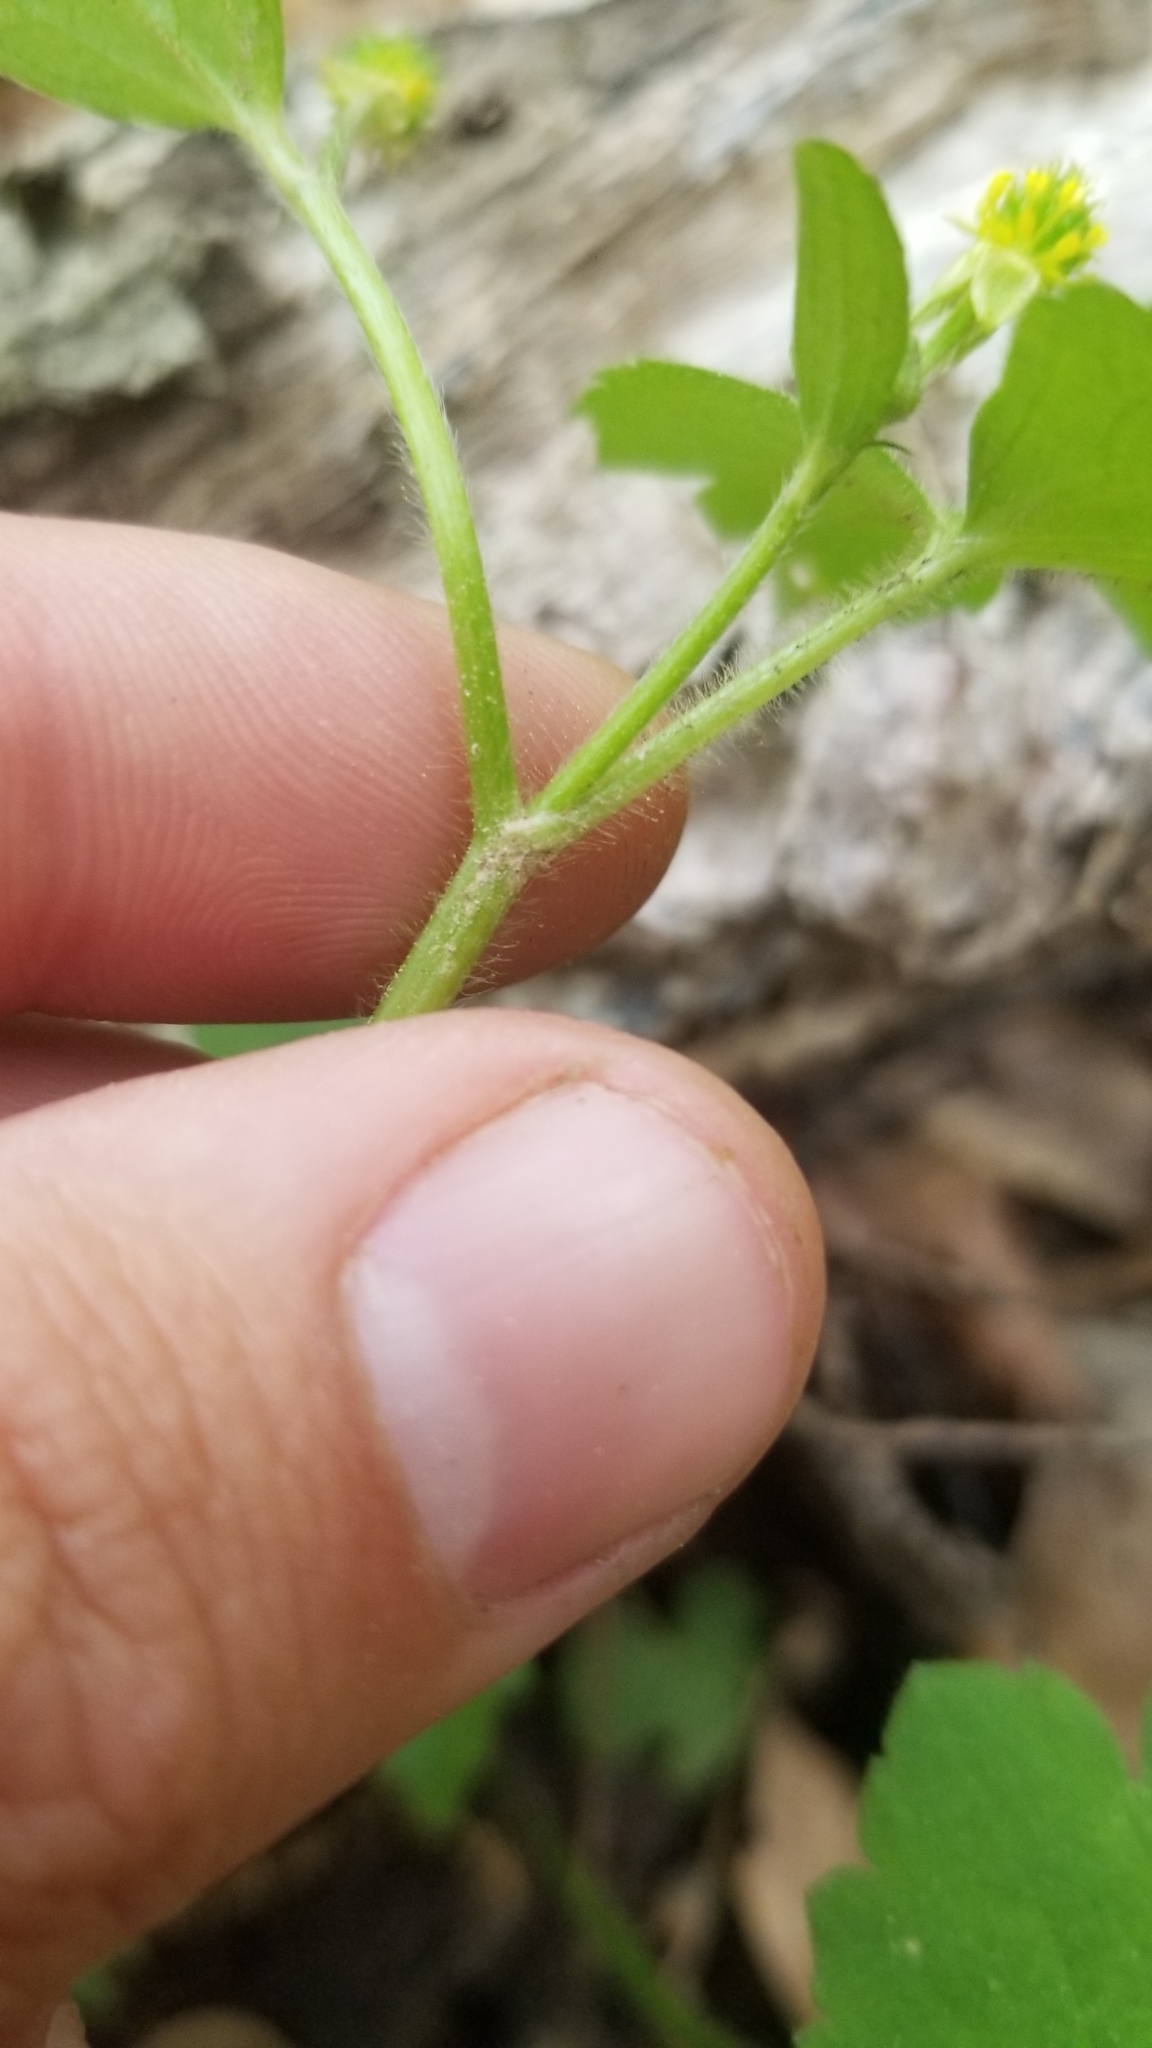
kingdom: Plantae
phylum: Tracheophyta
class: Magnoliopsida
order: Ranunculales
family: Ranunculaceae
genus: Ranunculus
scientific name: Ranunculus recurvatus
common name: Blisterwort
